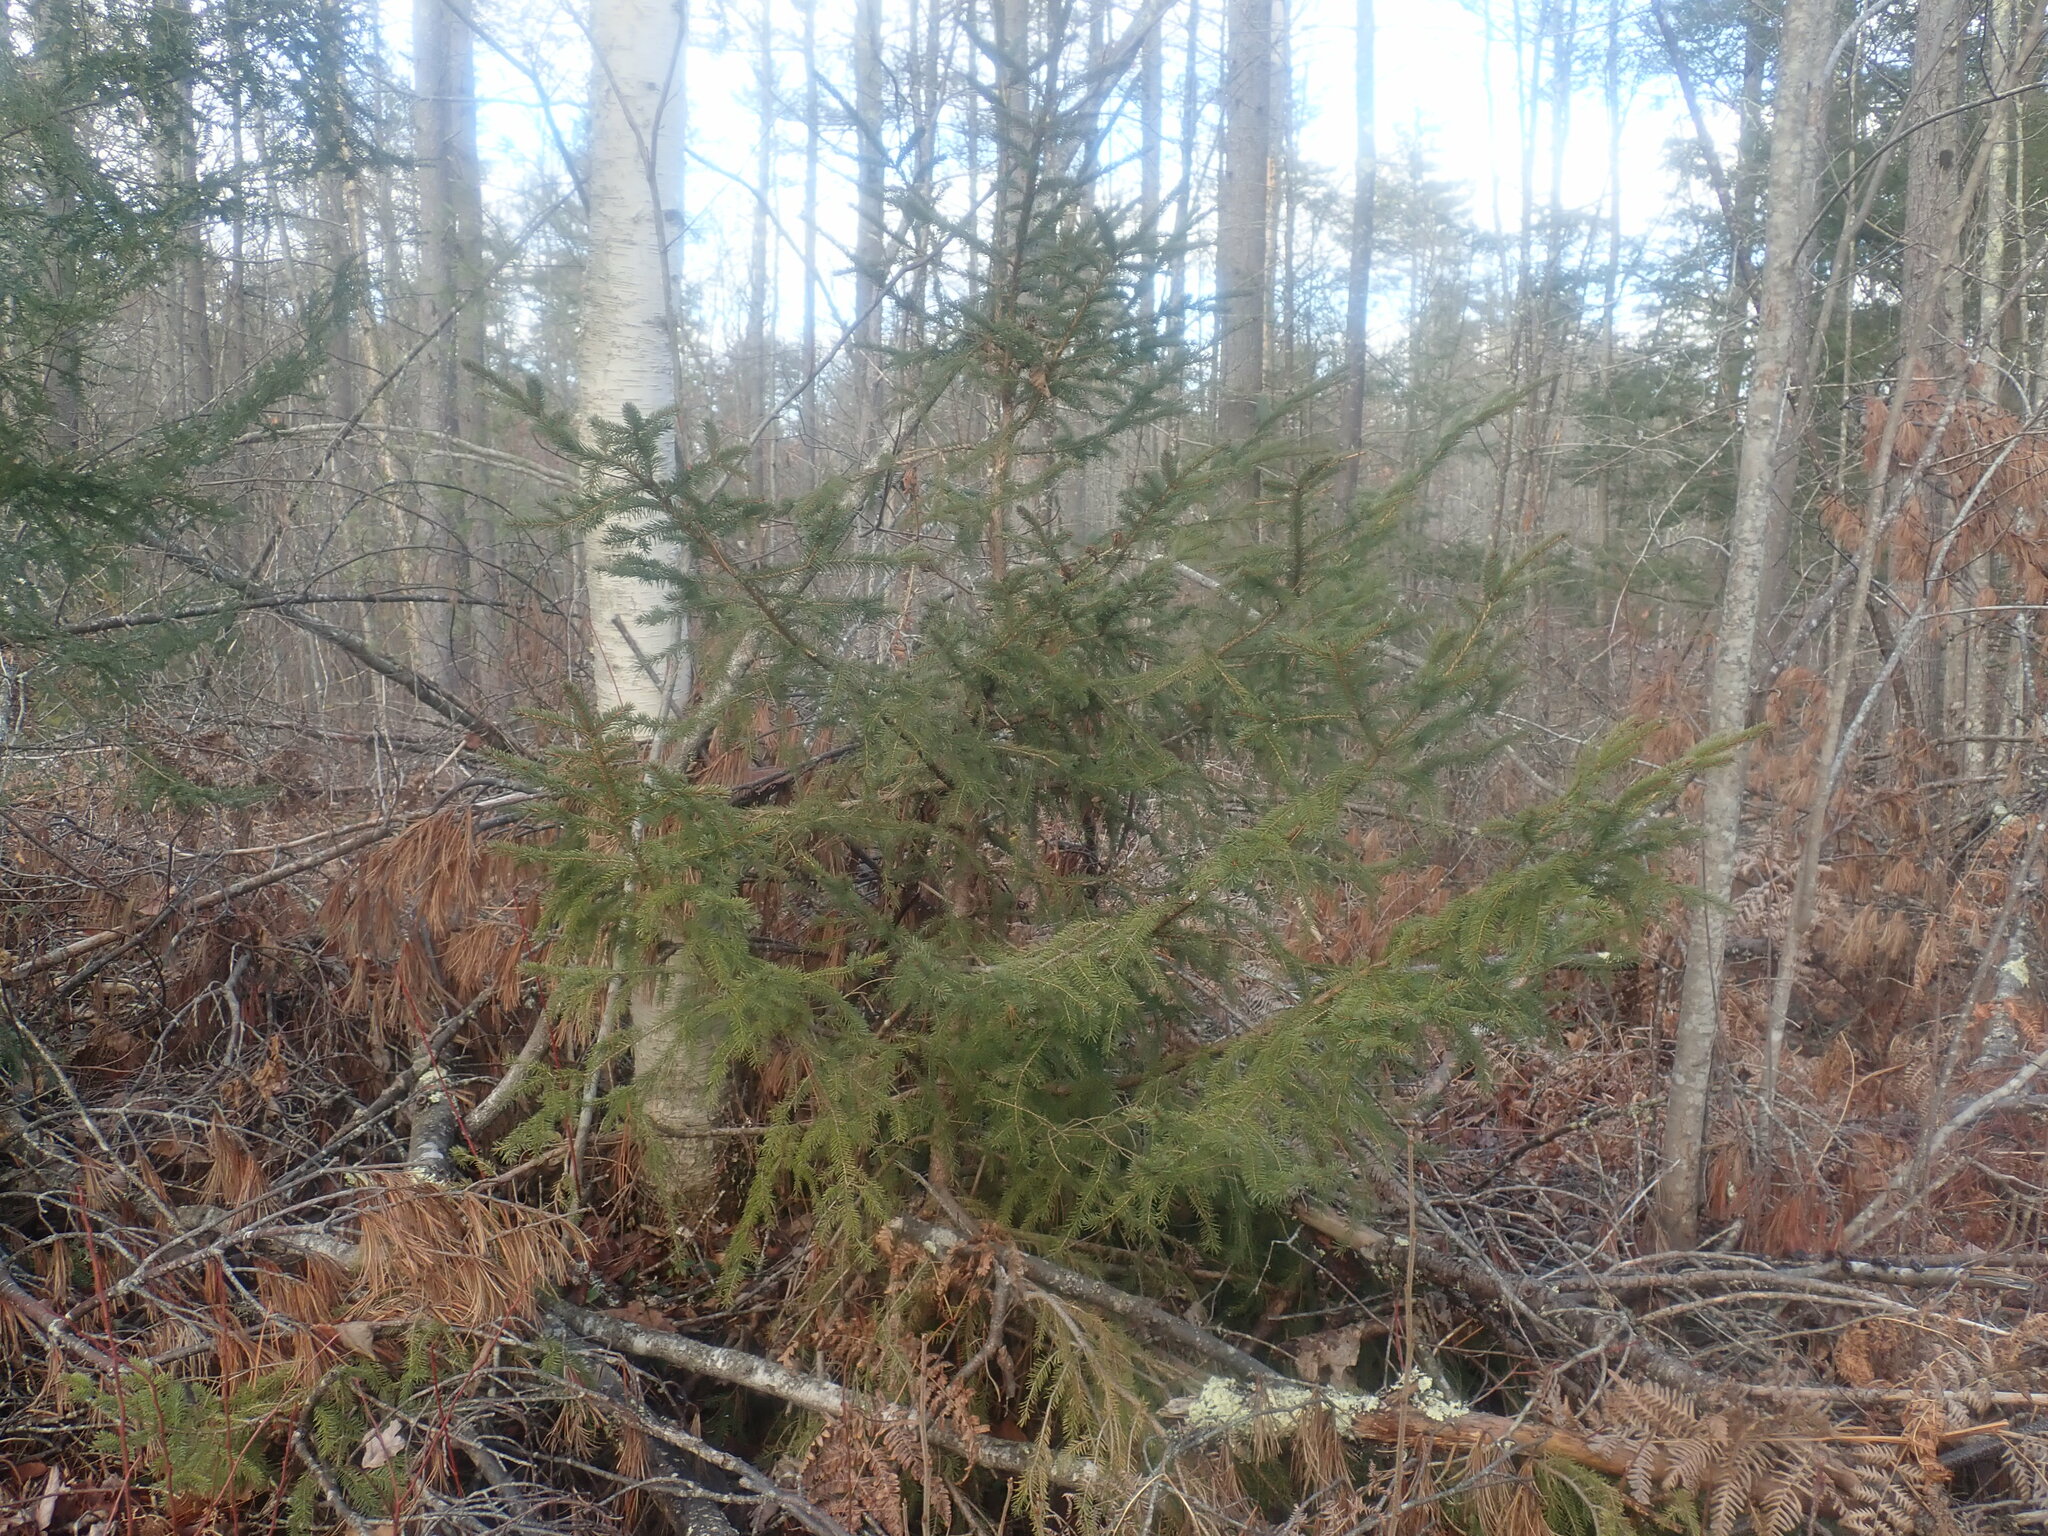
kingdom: Plantae
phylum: Tracheophyta
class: Pinopsida
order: Pinales
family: Pinaceae
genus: Picea
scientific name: Picea rubens
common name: Red spruce
